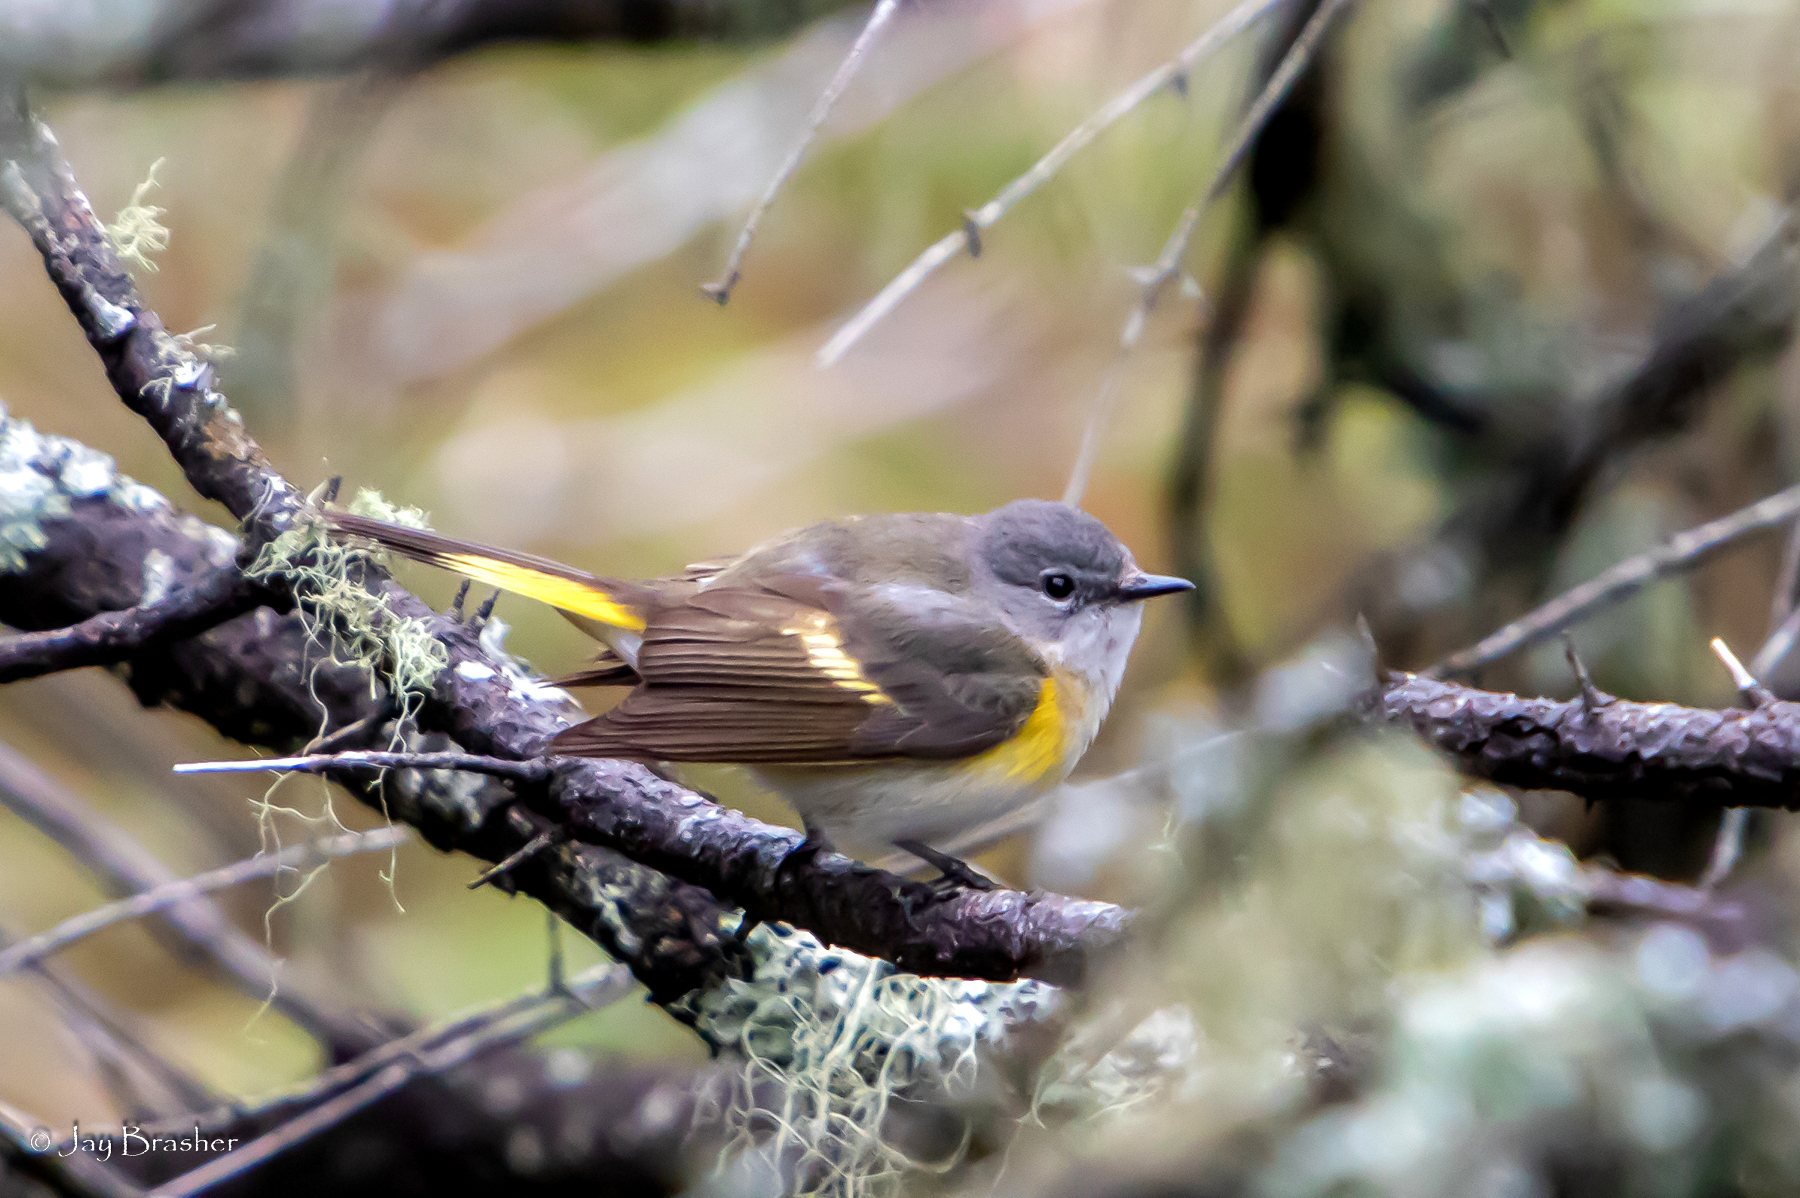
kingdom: Animalia
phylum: Chordata
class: Aves
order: Passeriformes
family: Parulidae
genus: Setophaga
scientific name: Setophaga ruticilla
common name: American redstart
